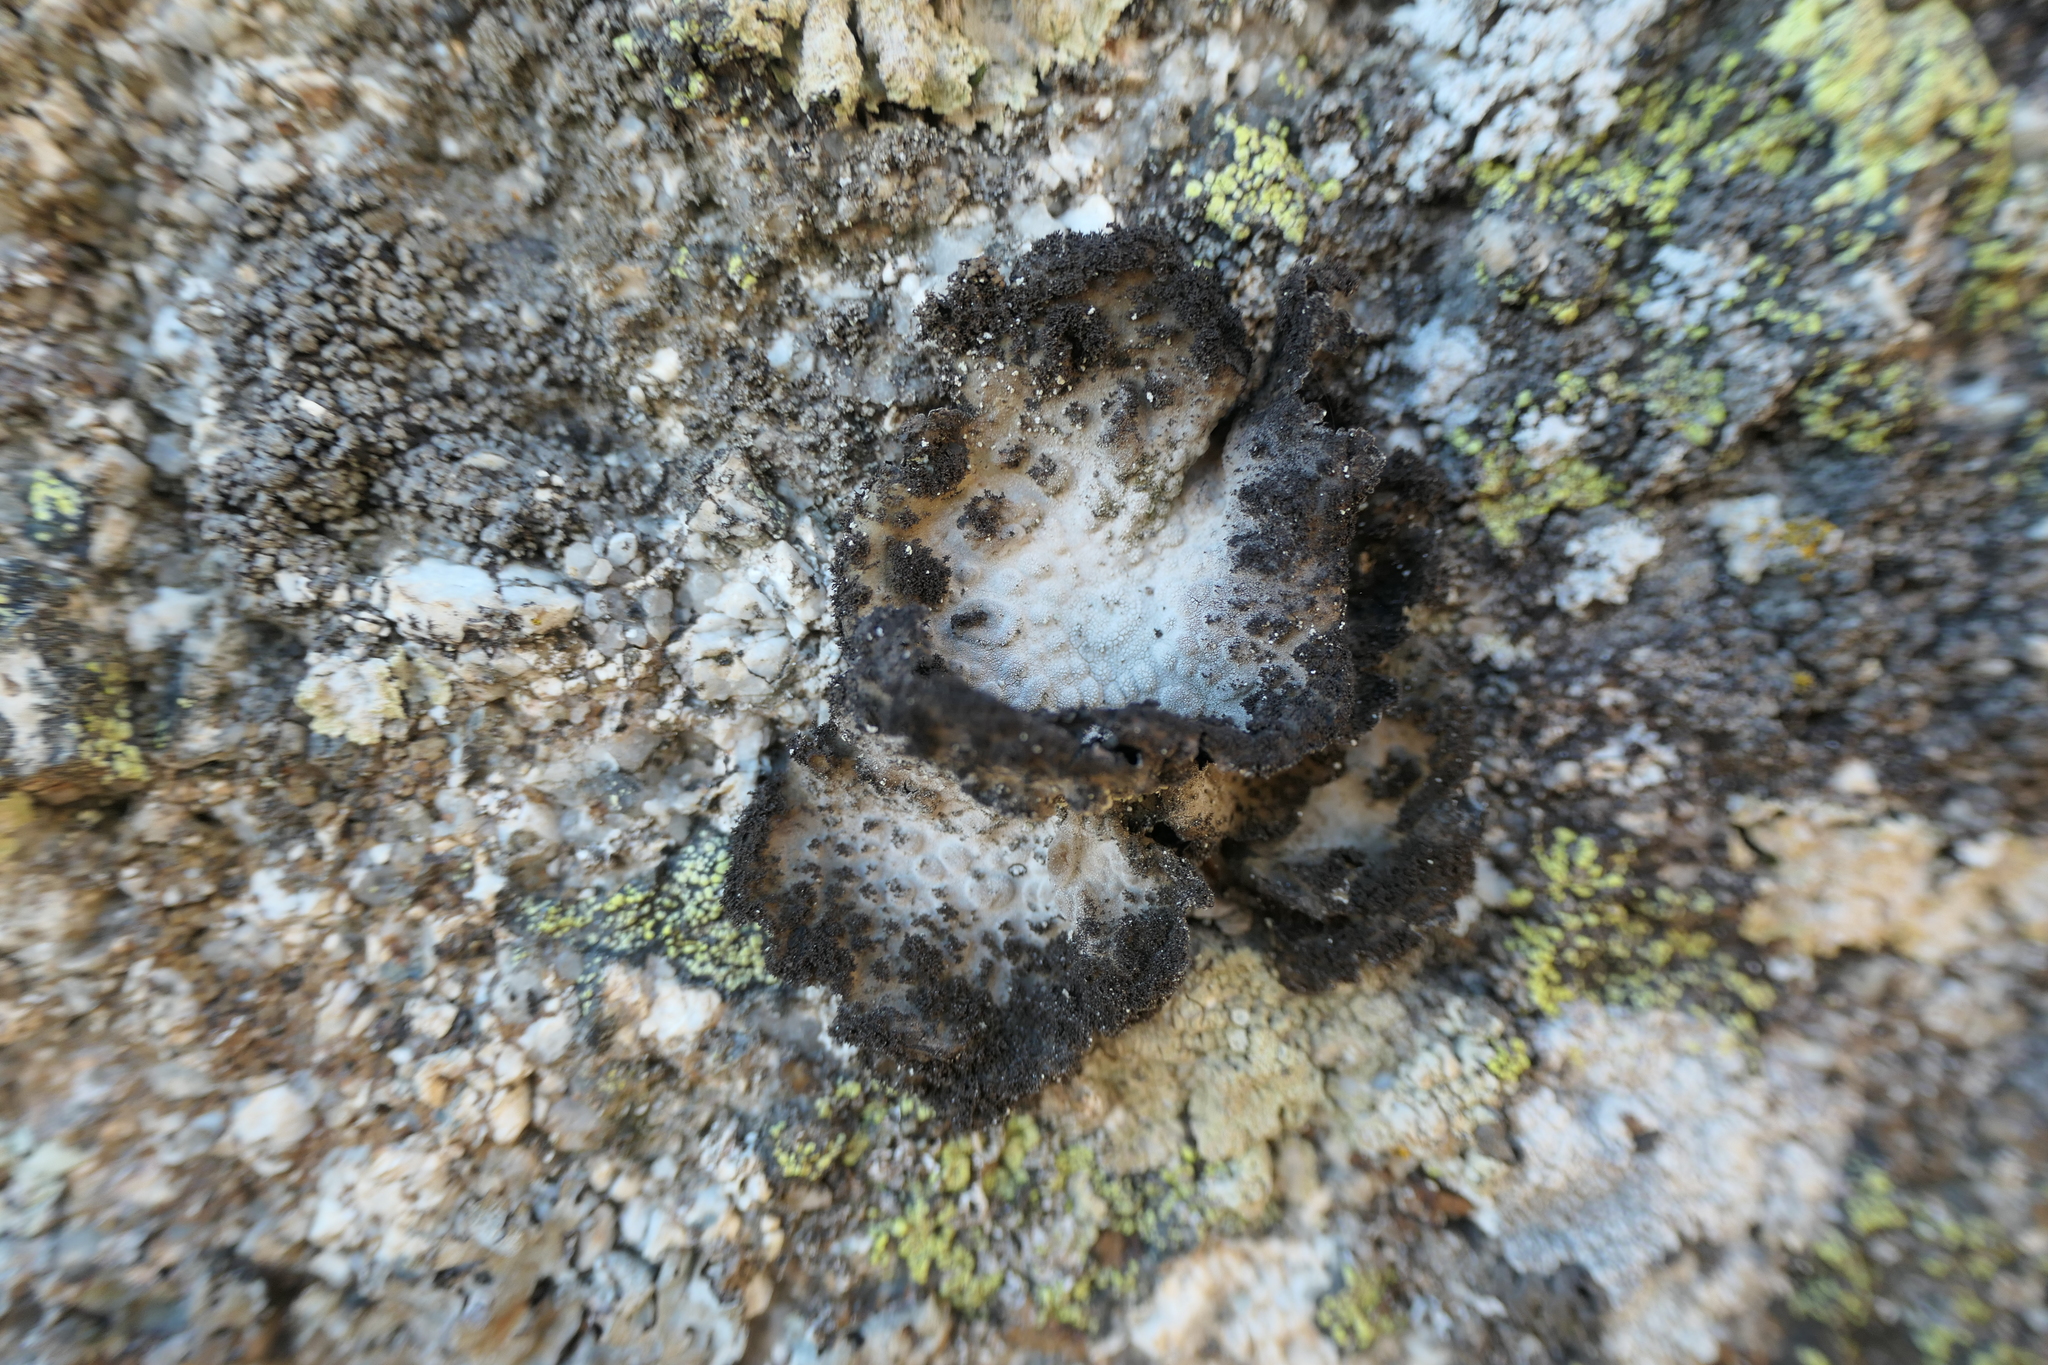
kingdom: Fungi
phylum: Ascomycota
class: Lecanoromycetes
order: Umbilicariales
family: Umbilicariaceae
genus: Lasallia
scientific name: Lasallia pustulata
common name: Blistered toadskin lichen
